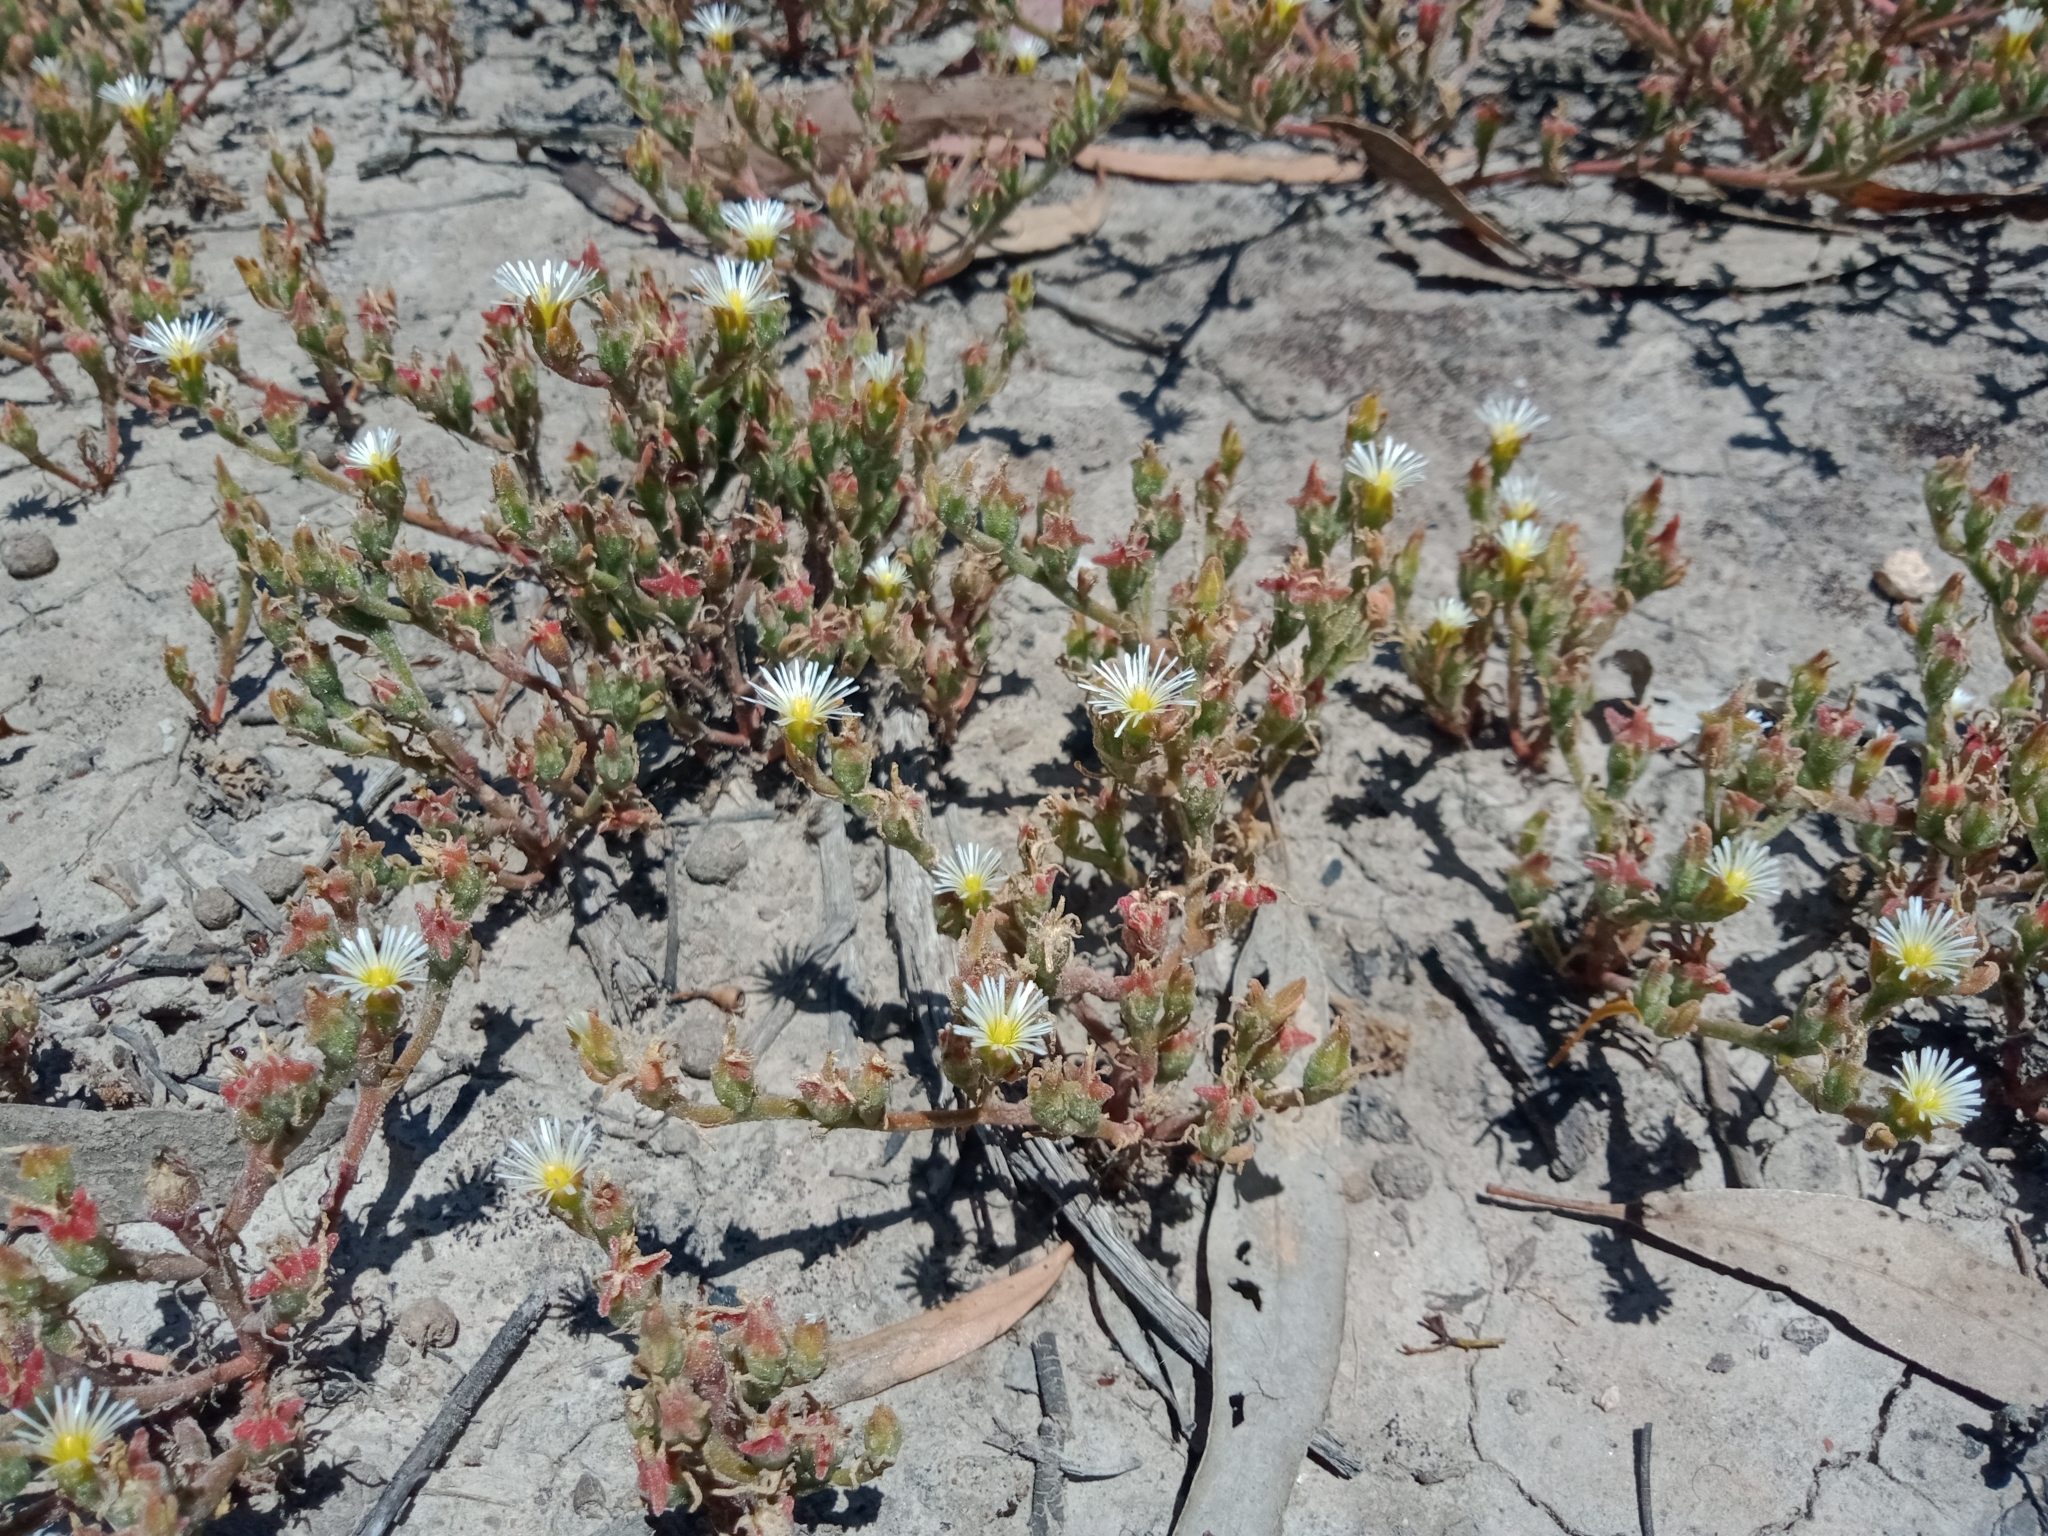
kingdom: Plantae
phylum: Tracheophyta
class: Magnoliopsida
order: Caryophyllales
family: Aizoaceae
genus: Mesembryanthemum
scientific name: Mesembryanthemum crystallinum
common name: Common iceplant
